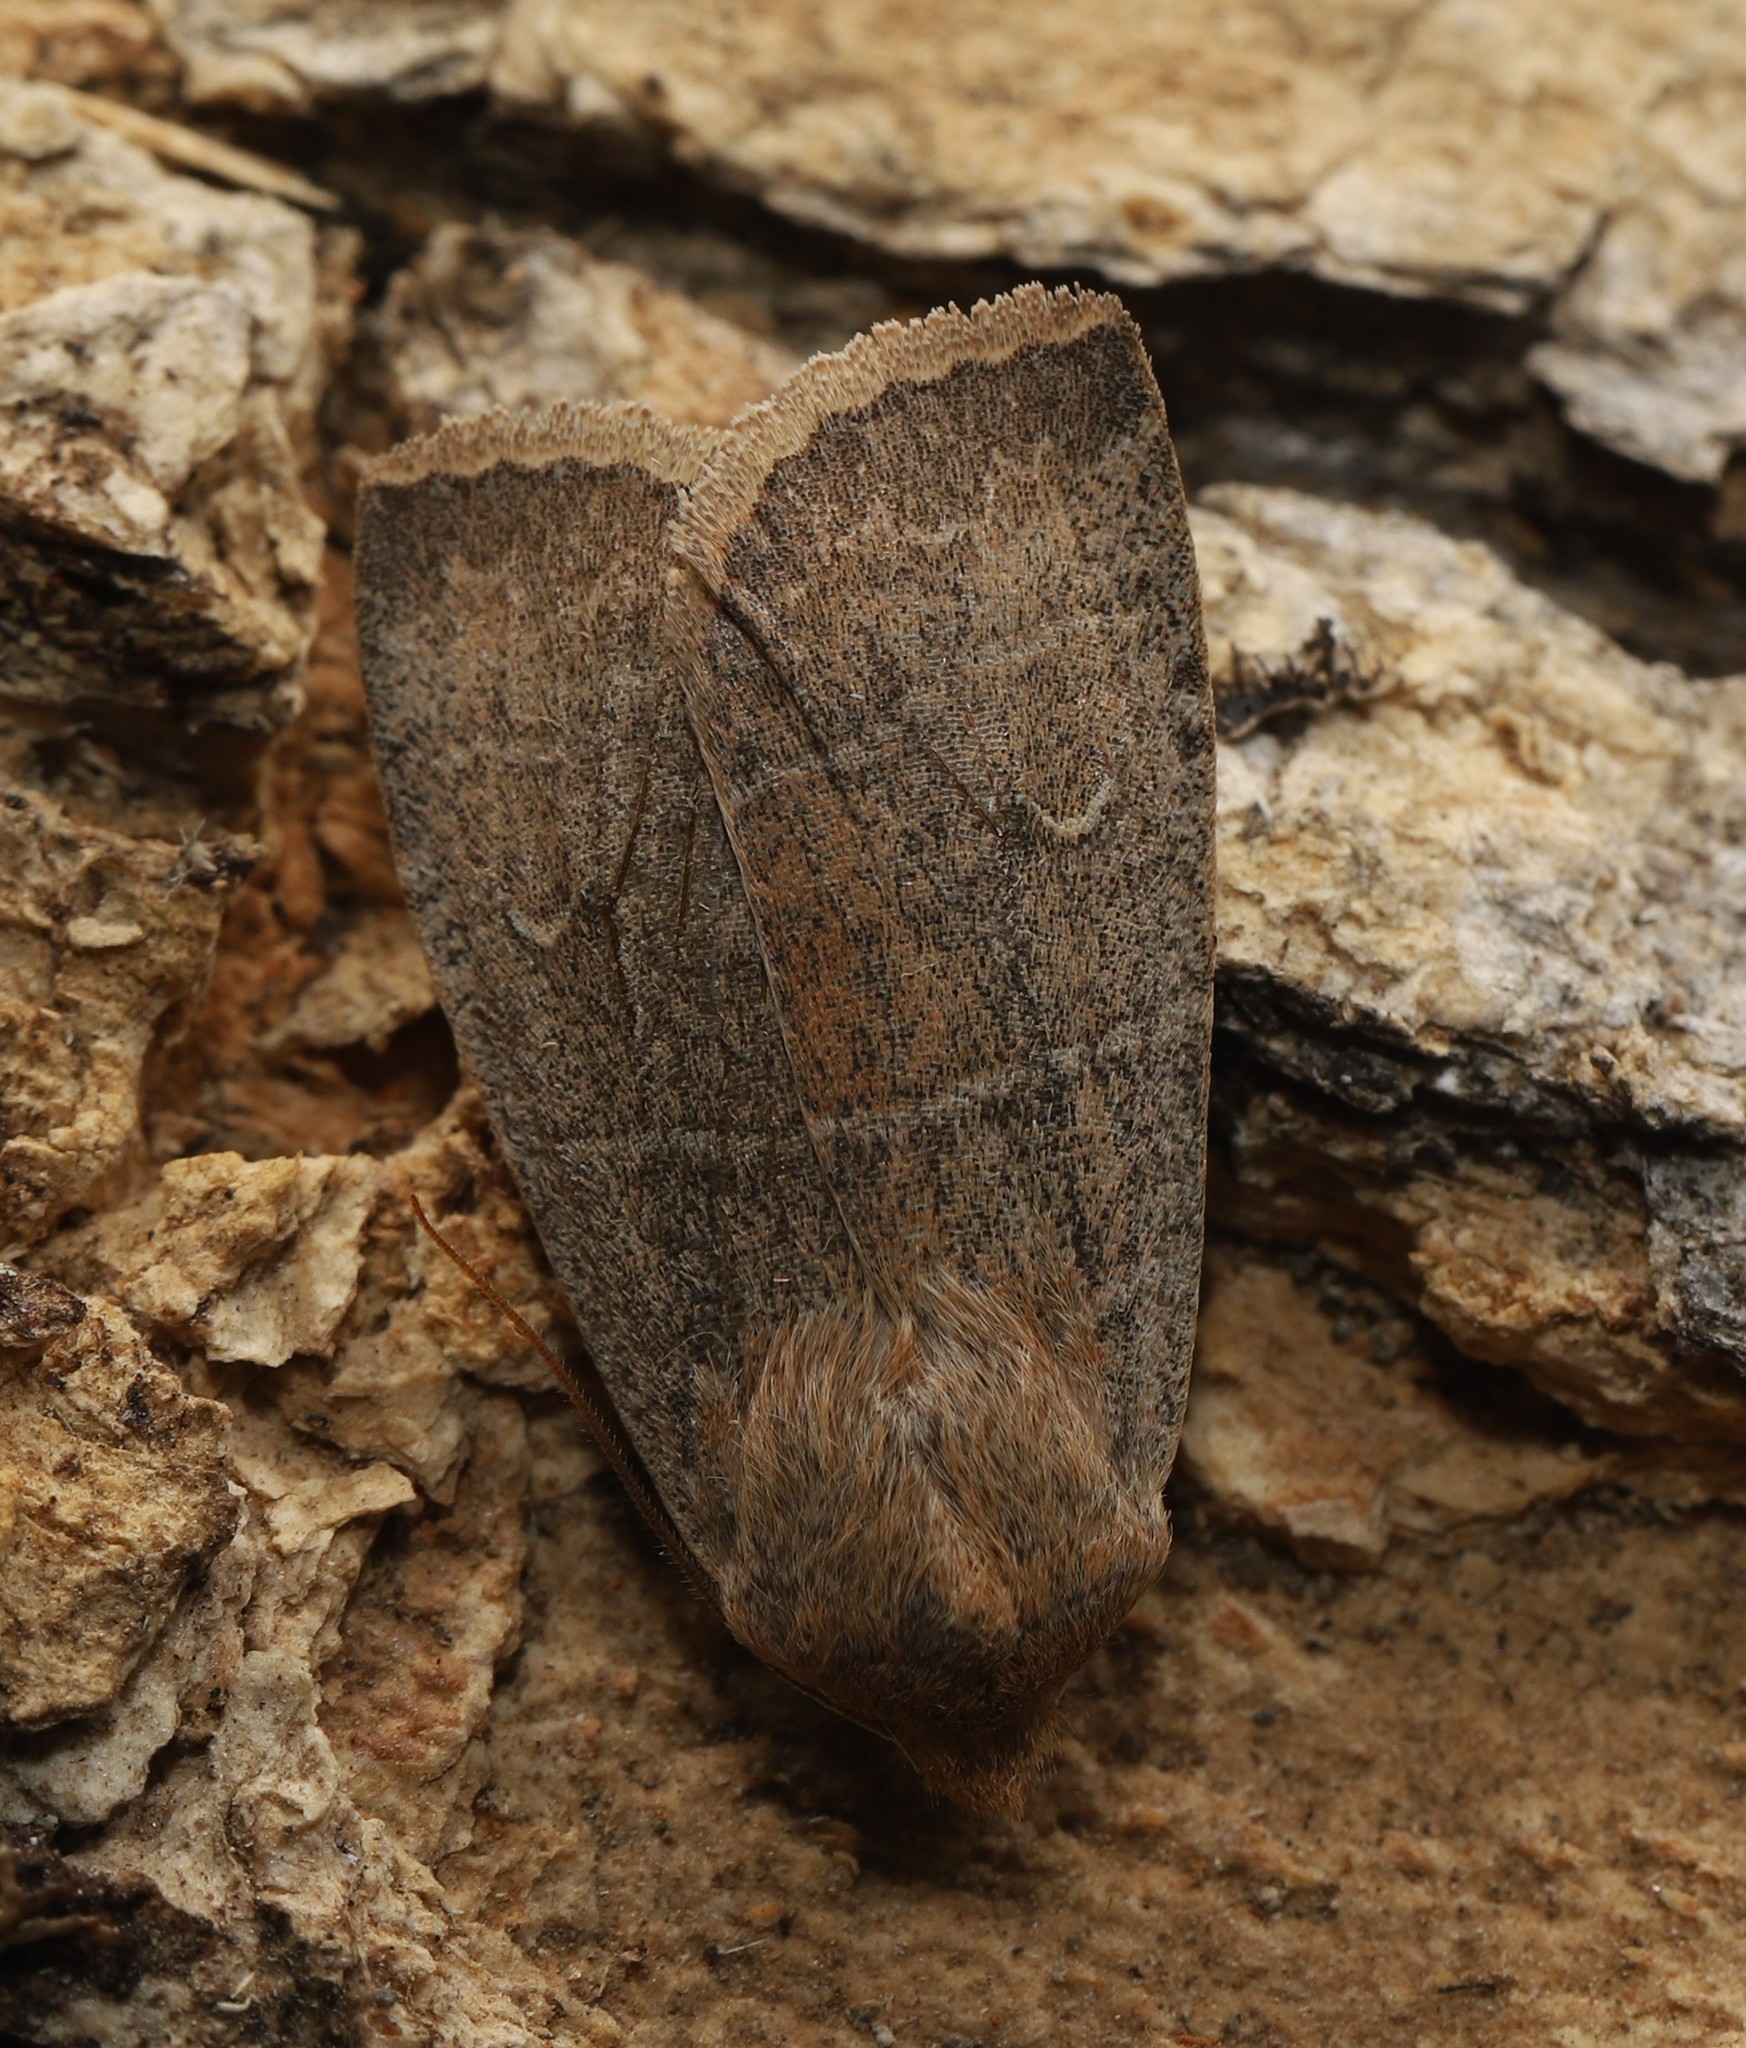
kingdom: Animalia
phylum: Arthropoda
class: Insecta
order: Lepidoptera
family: Noctuidae
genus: Eupsilia
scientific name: Eupsilia morrisoni
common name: Morrison's sallow
